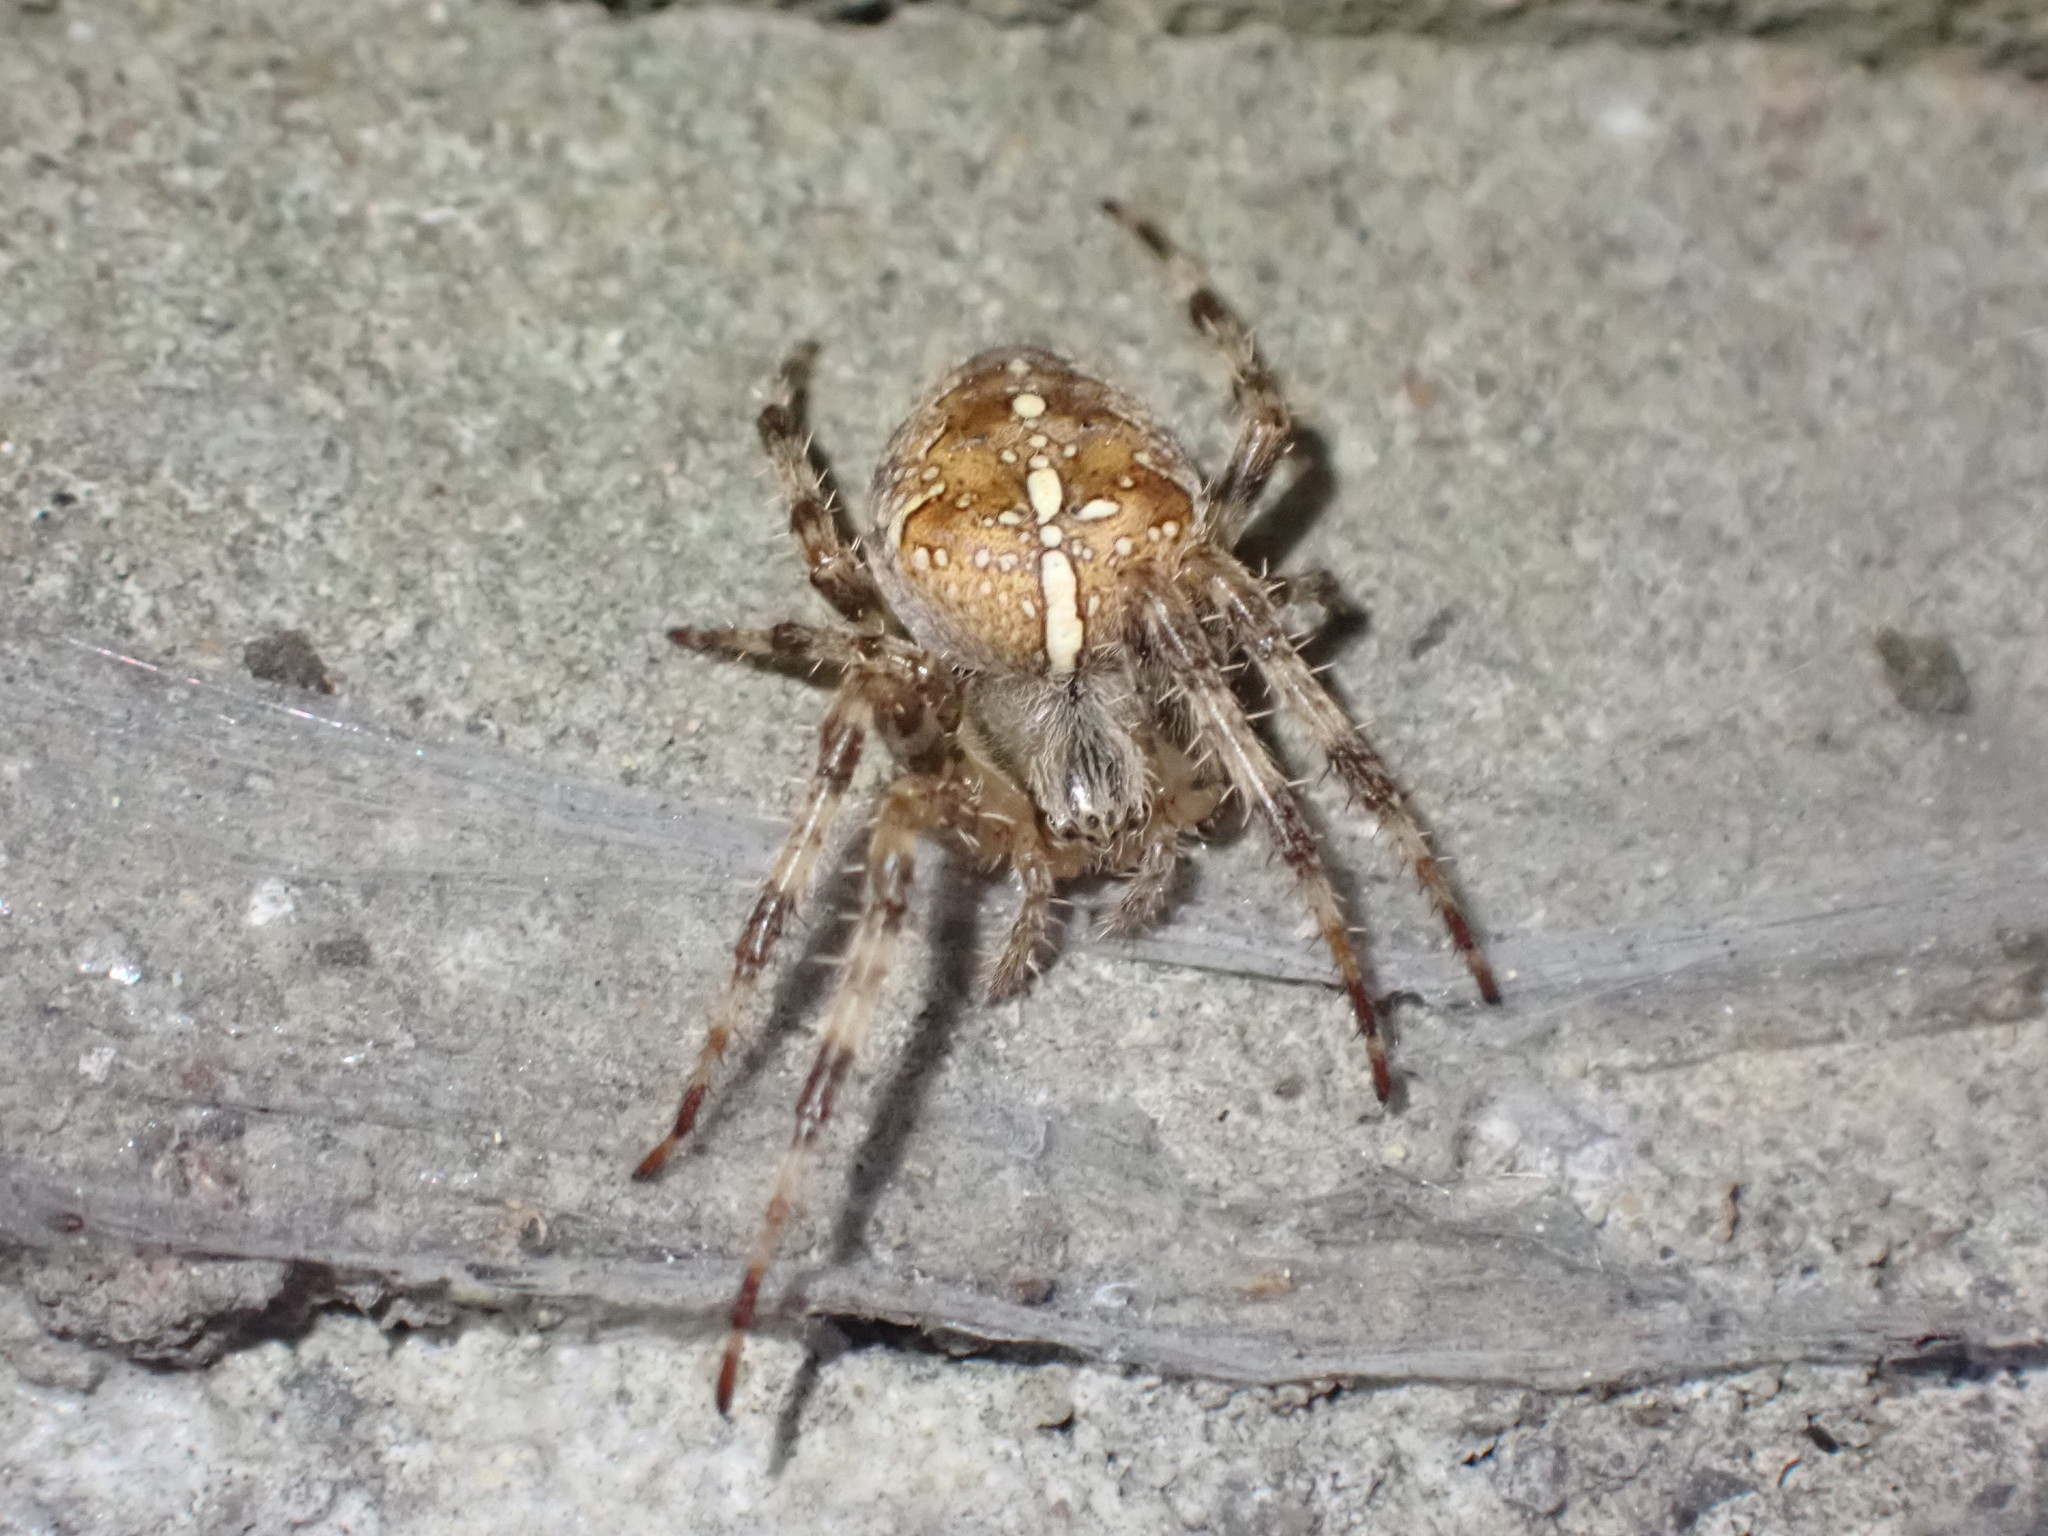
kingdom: Animalia
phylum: Arthropoda
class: Arachnida
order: Araneae
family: Araneidae
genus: Araneus
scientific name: Araneus diadematus
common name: Cross orbweaver
